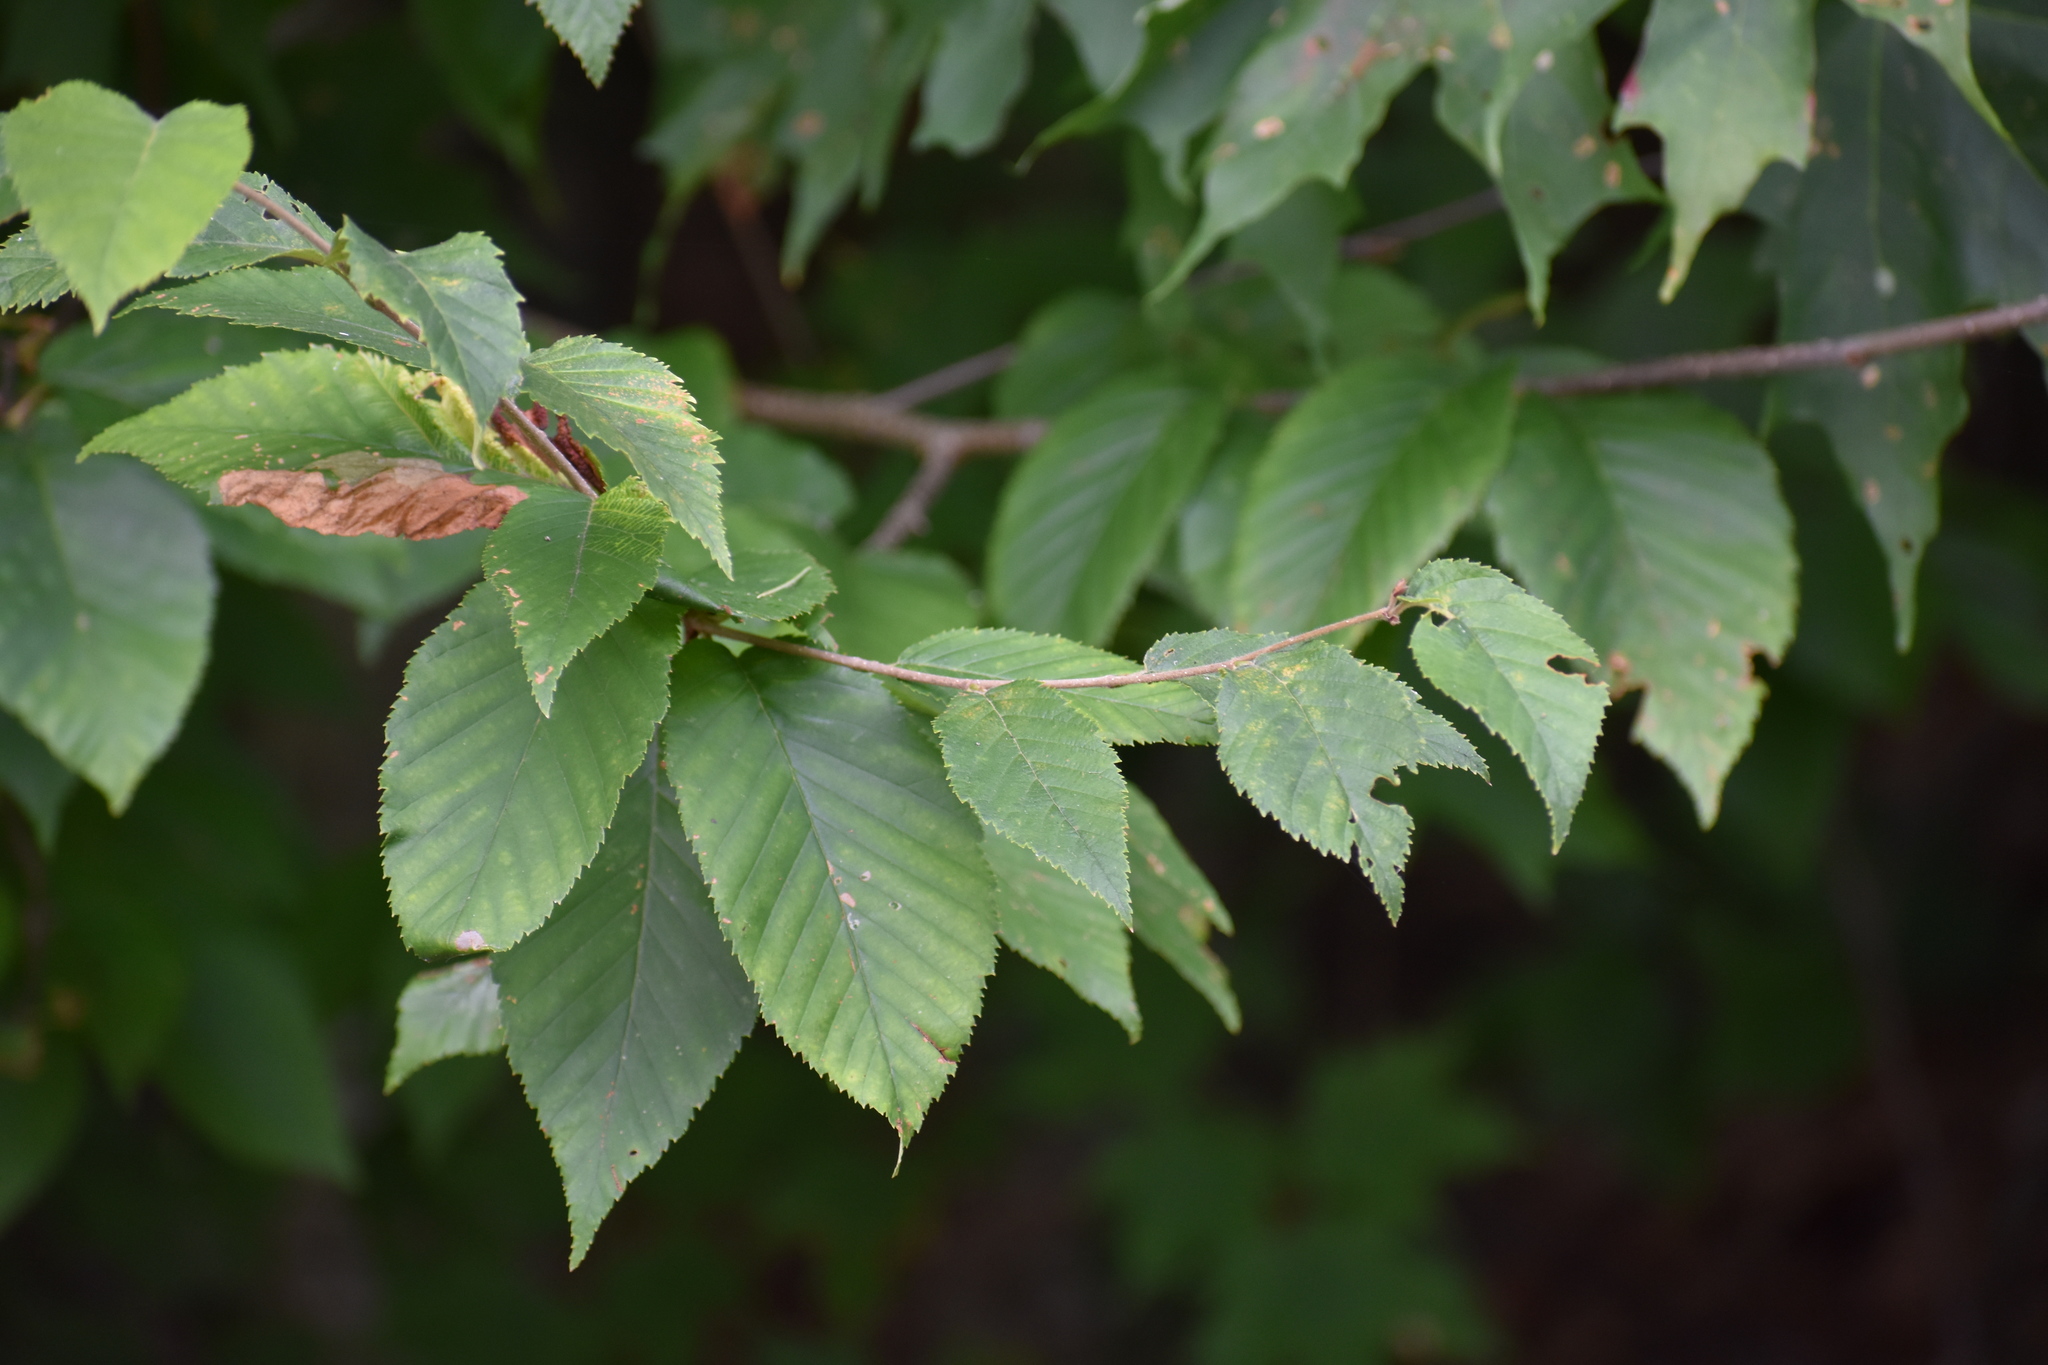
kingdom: Plantae
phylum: Tracheophyta
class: Magnoliopsida
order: Fagales
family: Betulaceae
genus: Carpinus
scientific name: Carpinus caroliniana
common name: American hornbeam
